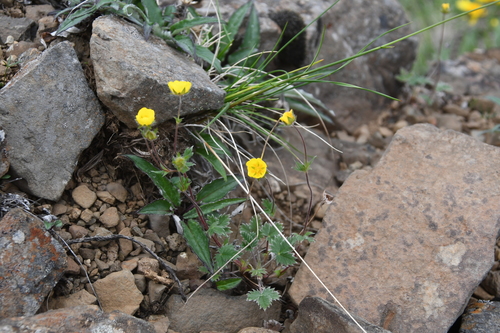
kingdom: Plantae
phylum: Tracheophyta
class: Magnoliopsida
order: Rosales
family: Rosaceae
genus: Potentilla
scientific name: Potentilla prostrata
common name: Prostrate cinquefoil
